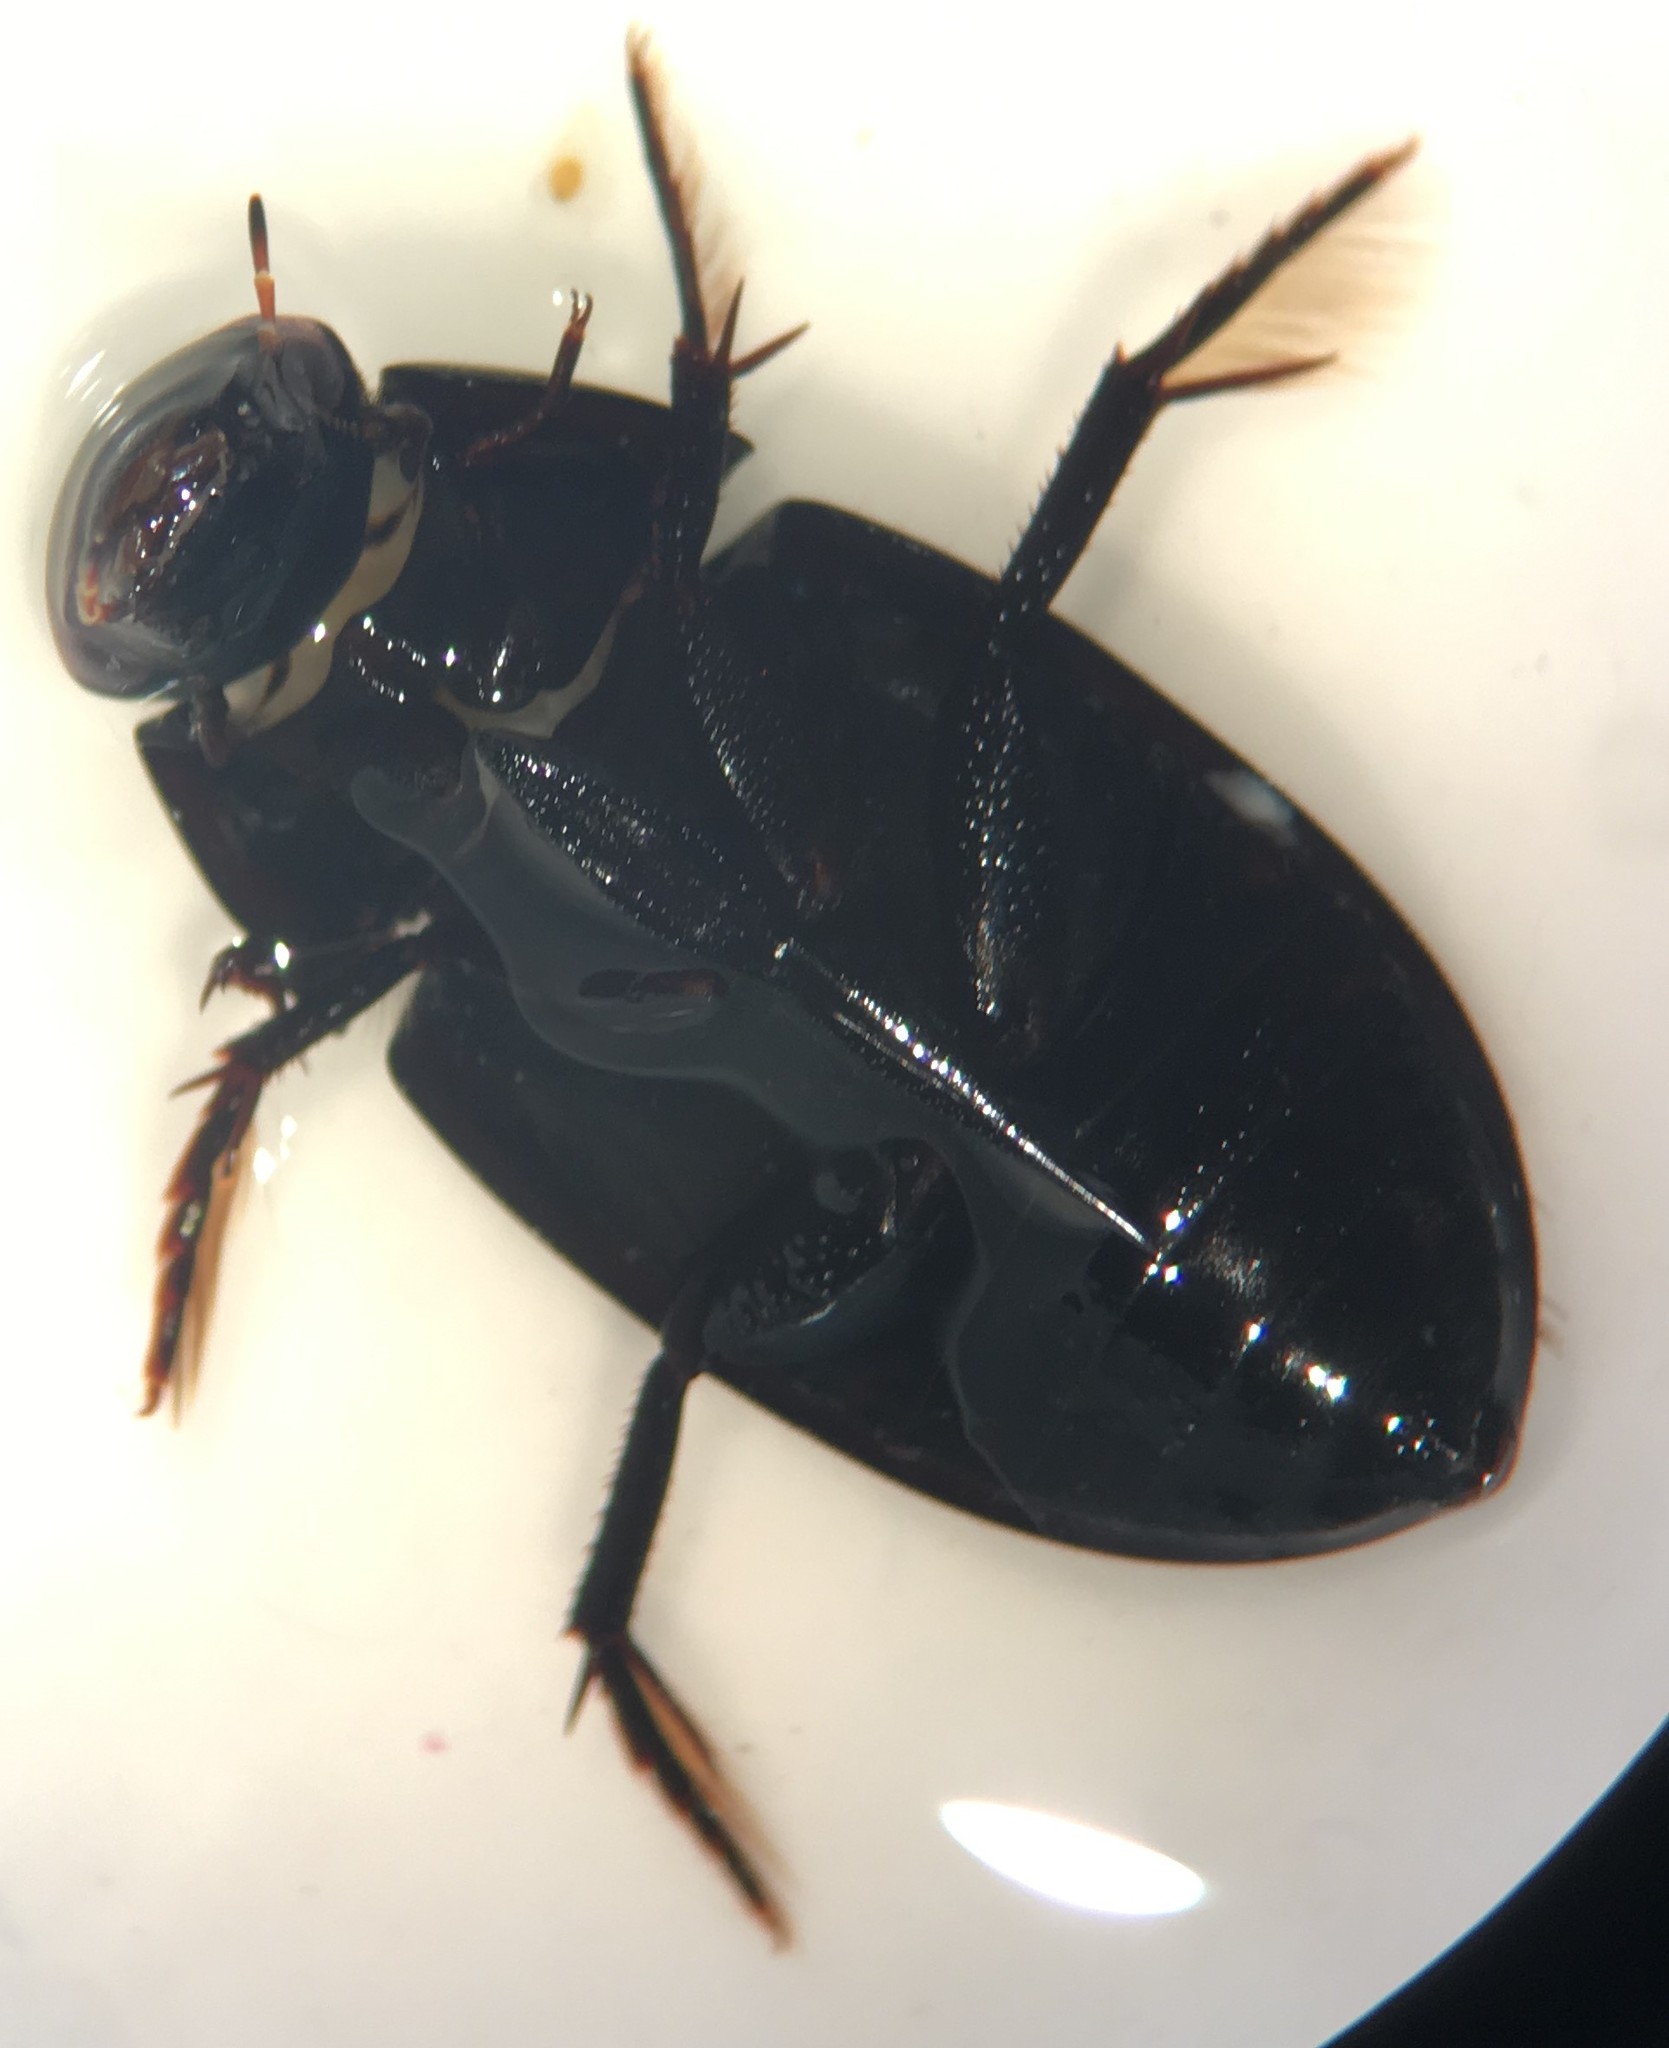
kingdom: Animalia
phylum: Arthropoda
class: Insecta
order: Coleoptera
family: Hydrophilidae
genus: Tropisternus
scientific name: Tropisternus natator
